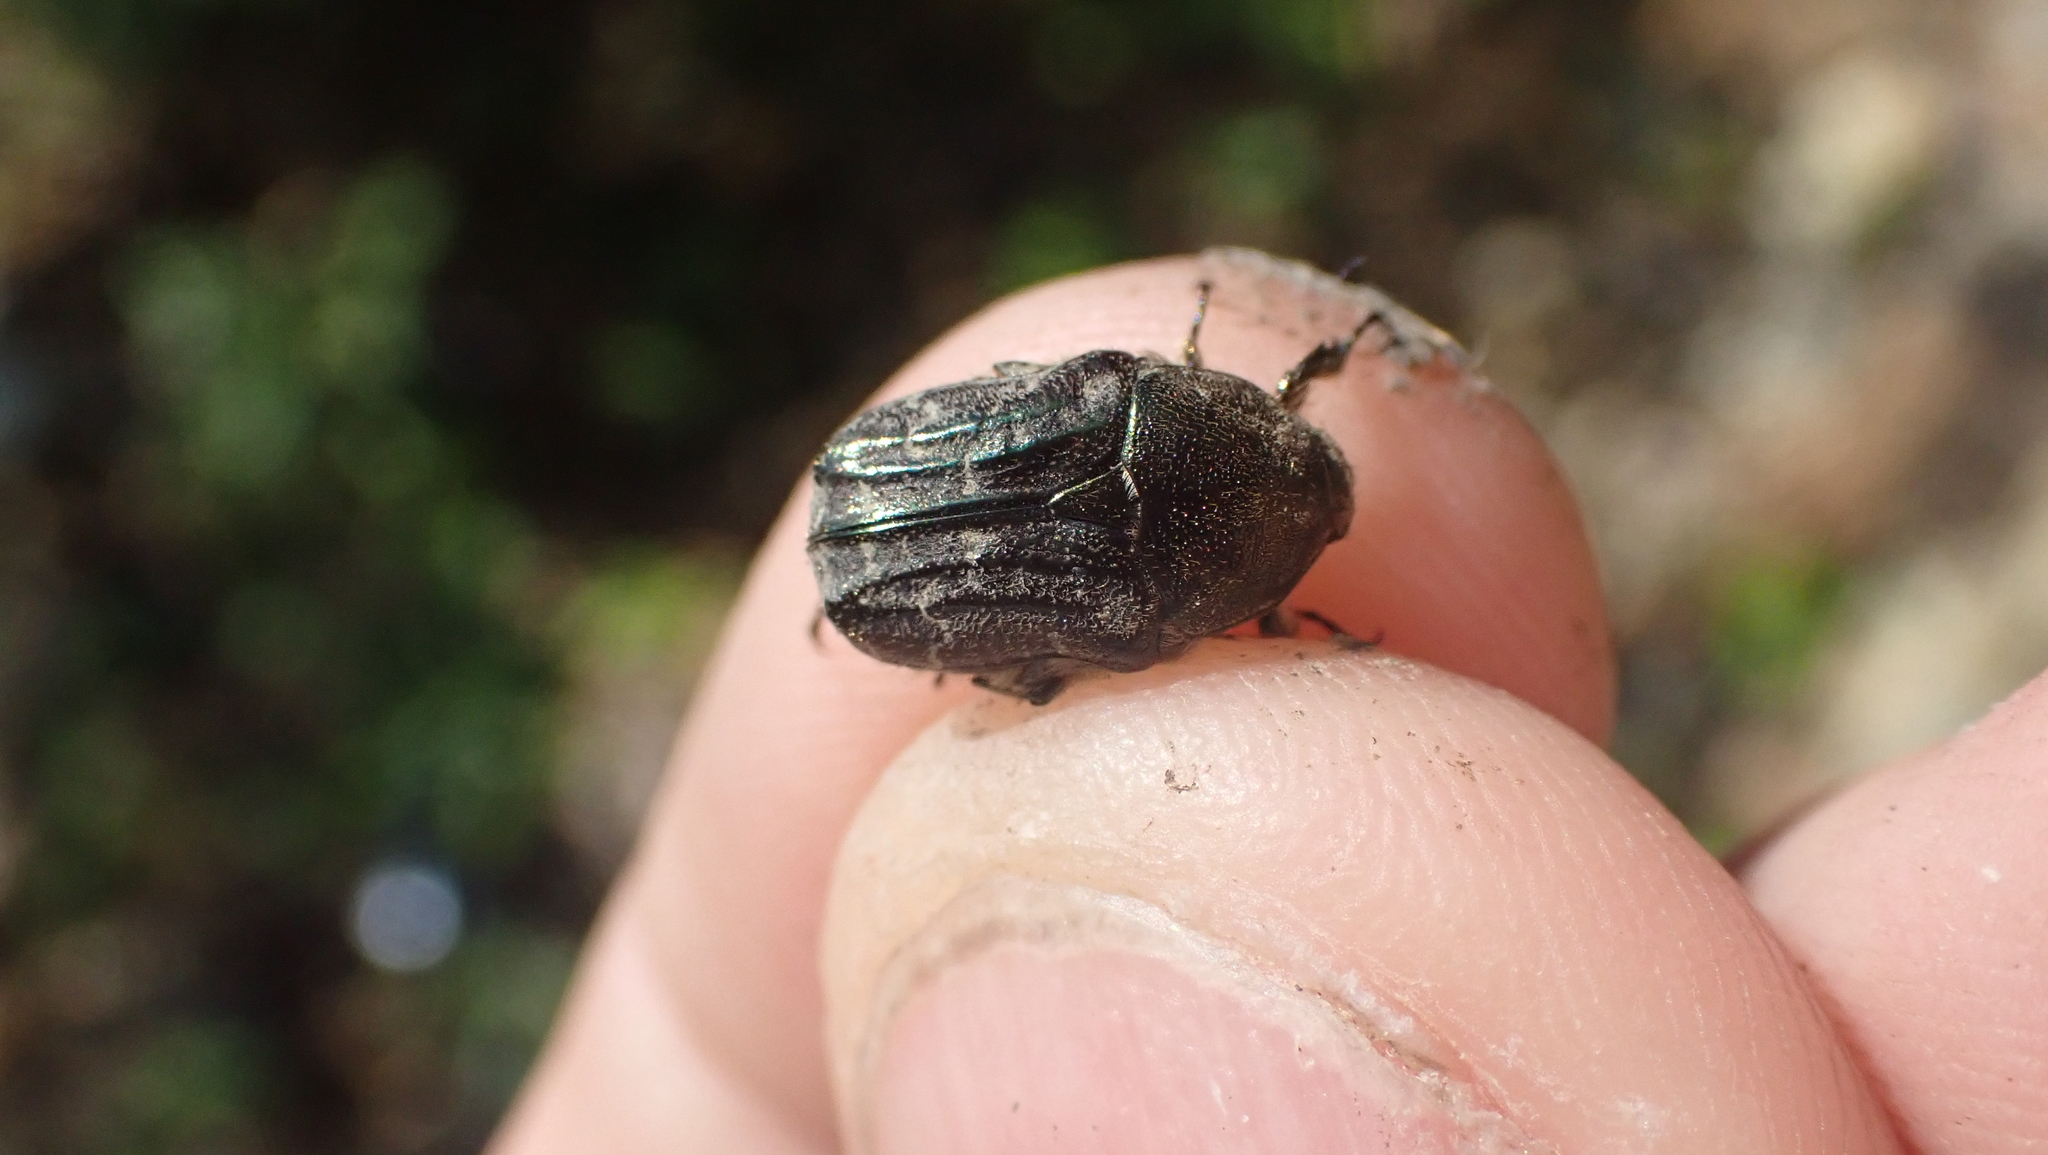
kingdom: Animalia
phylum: Arthropoda
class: Insecta
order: Coleoptera
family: Scarabaeidae
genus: Euphoria
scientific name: Euphoria sepulcralis
